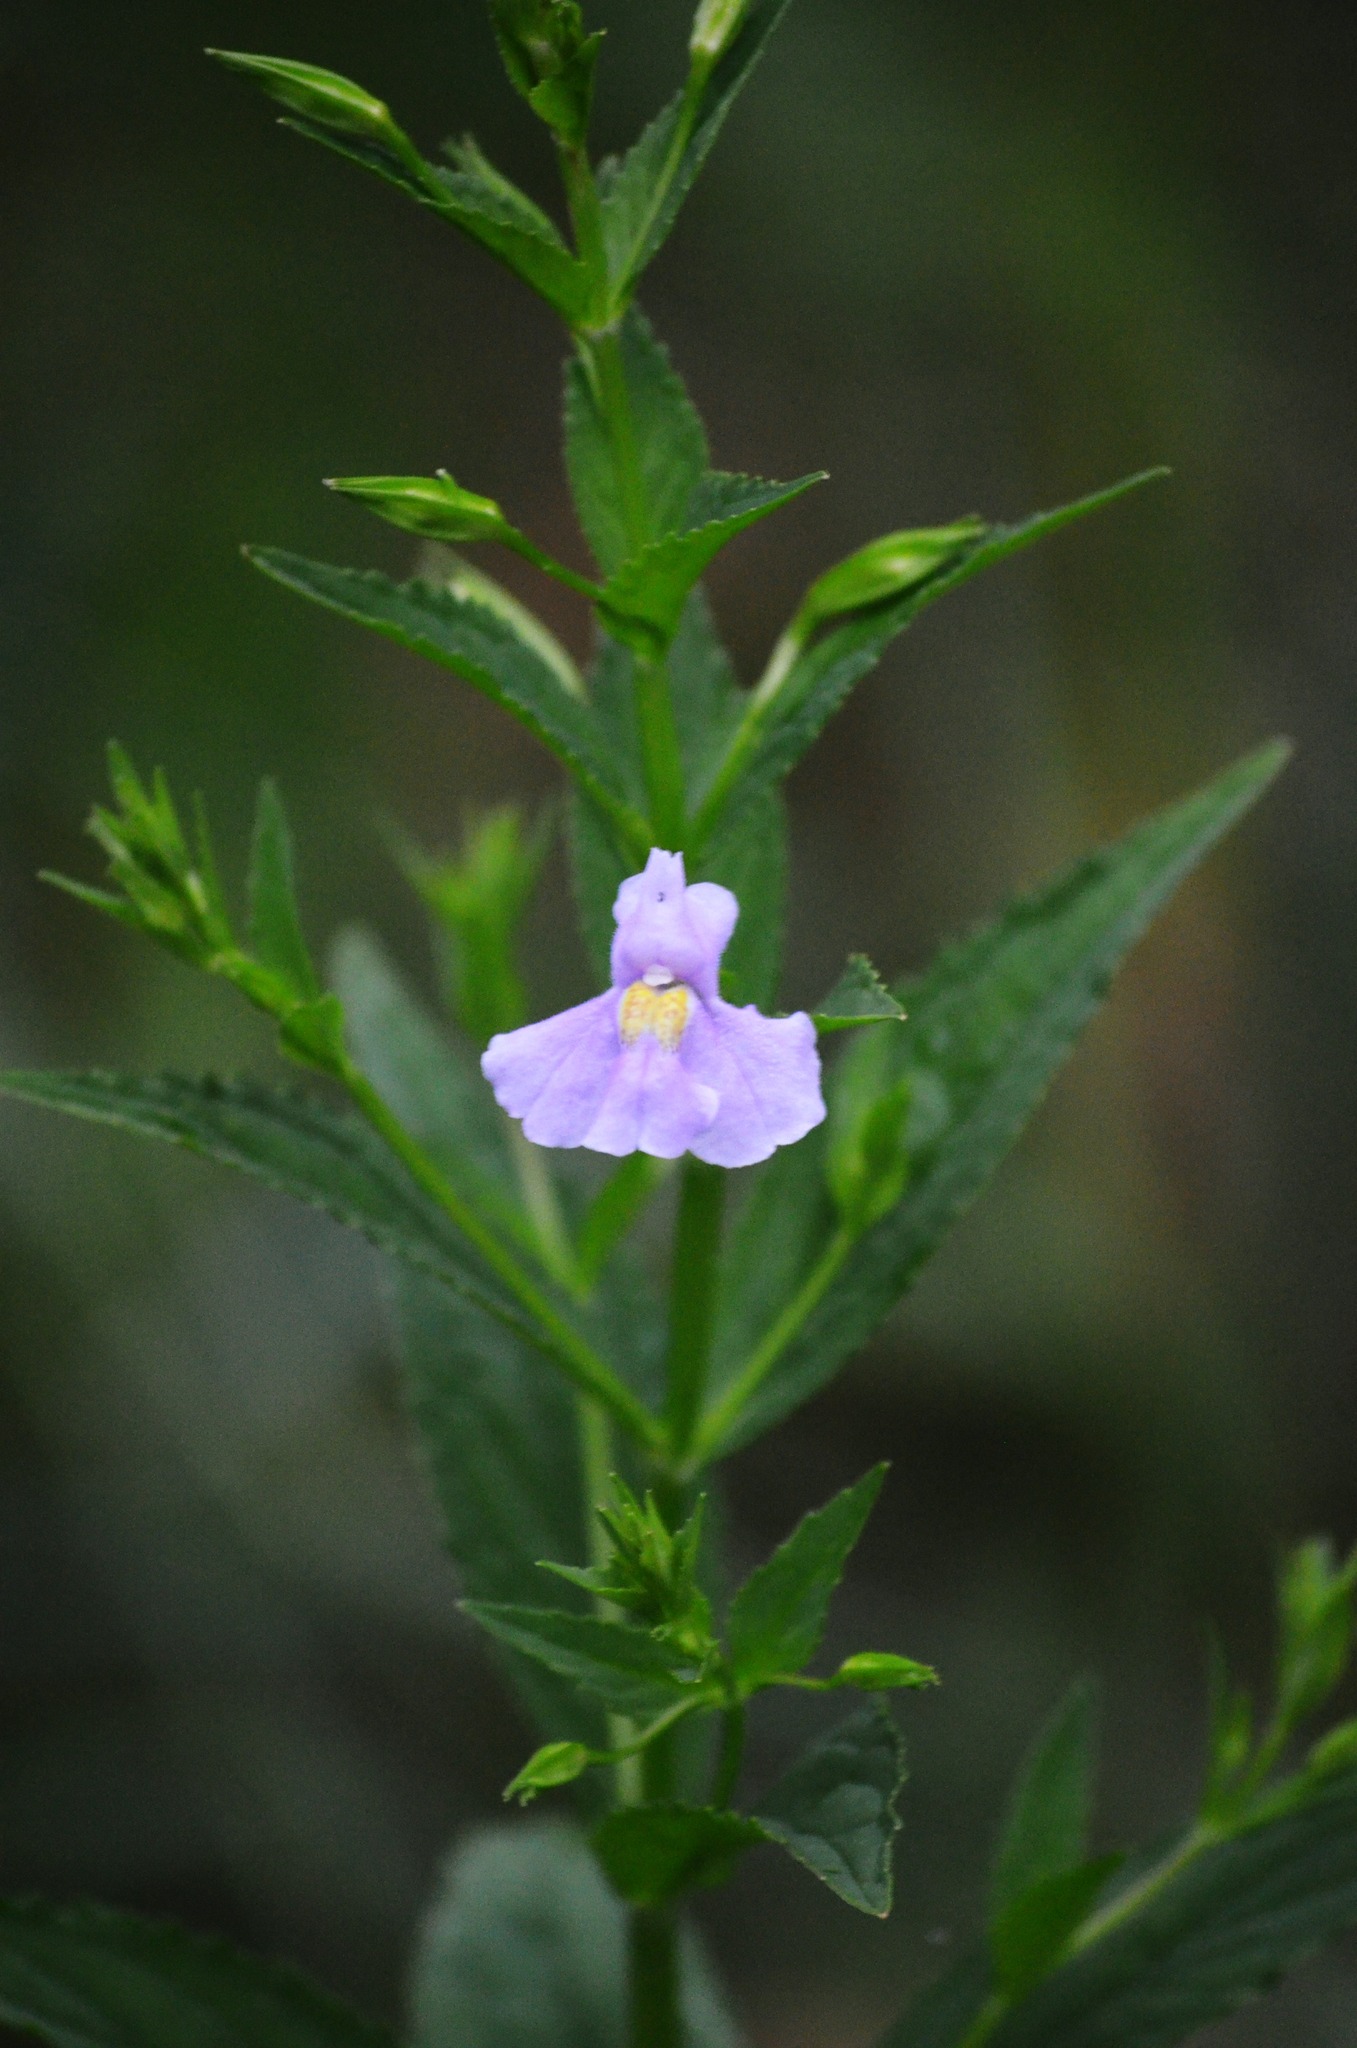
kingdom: Plantae
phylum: Tracheophyta
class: Magnoliopsida
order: Lamiales
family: Phrymaceae
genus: Mimulus
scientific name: Mimulus ringens
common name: Allegheny monkeyflower
